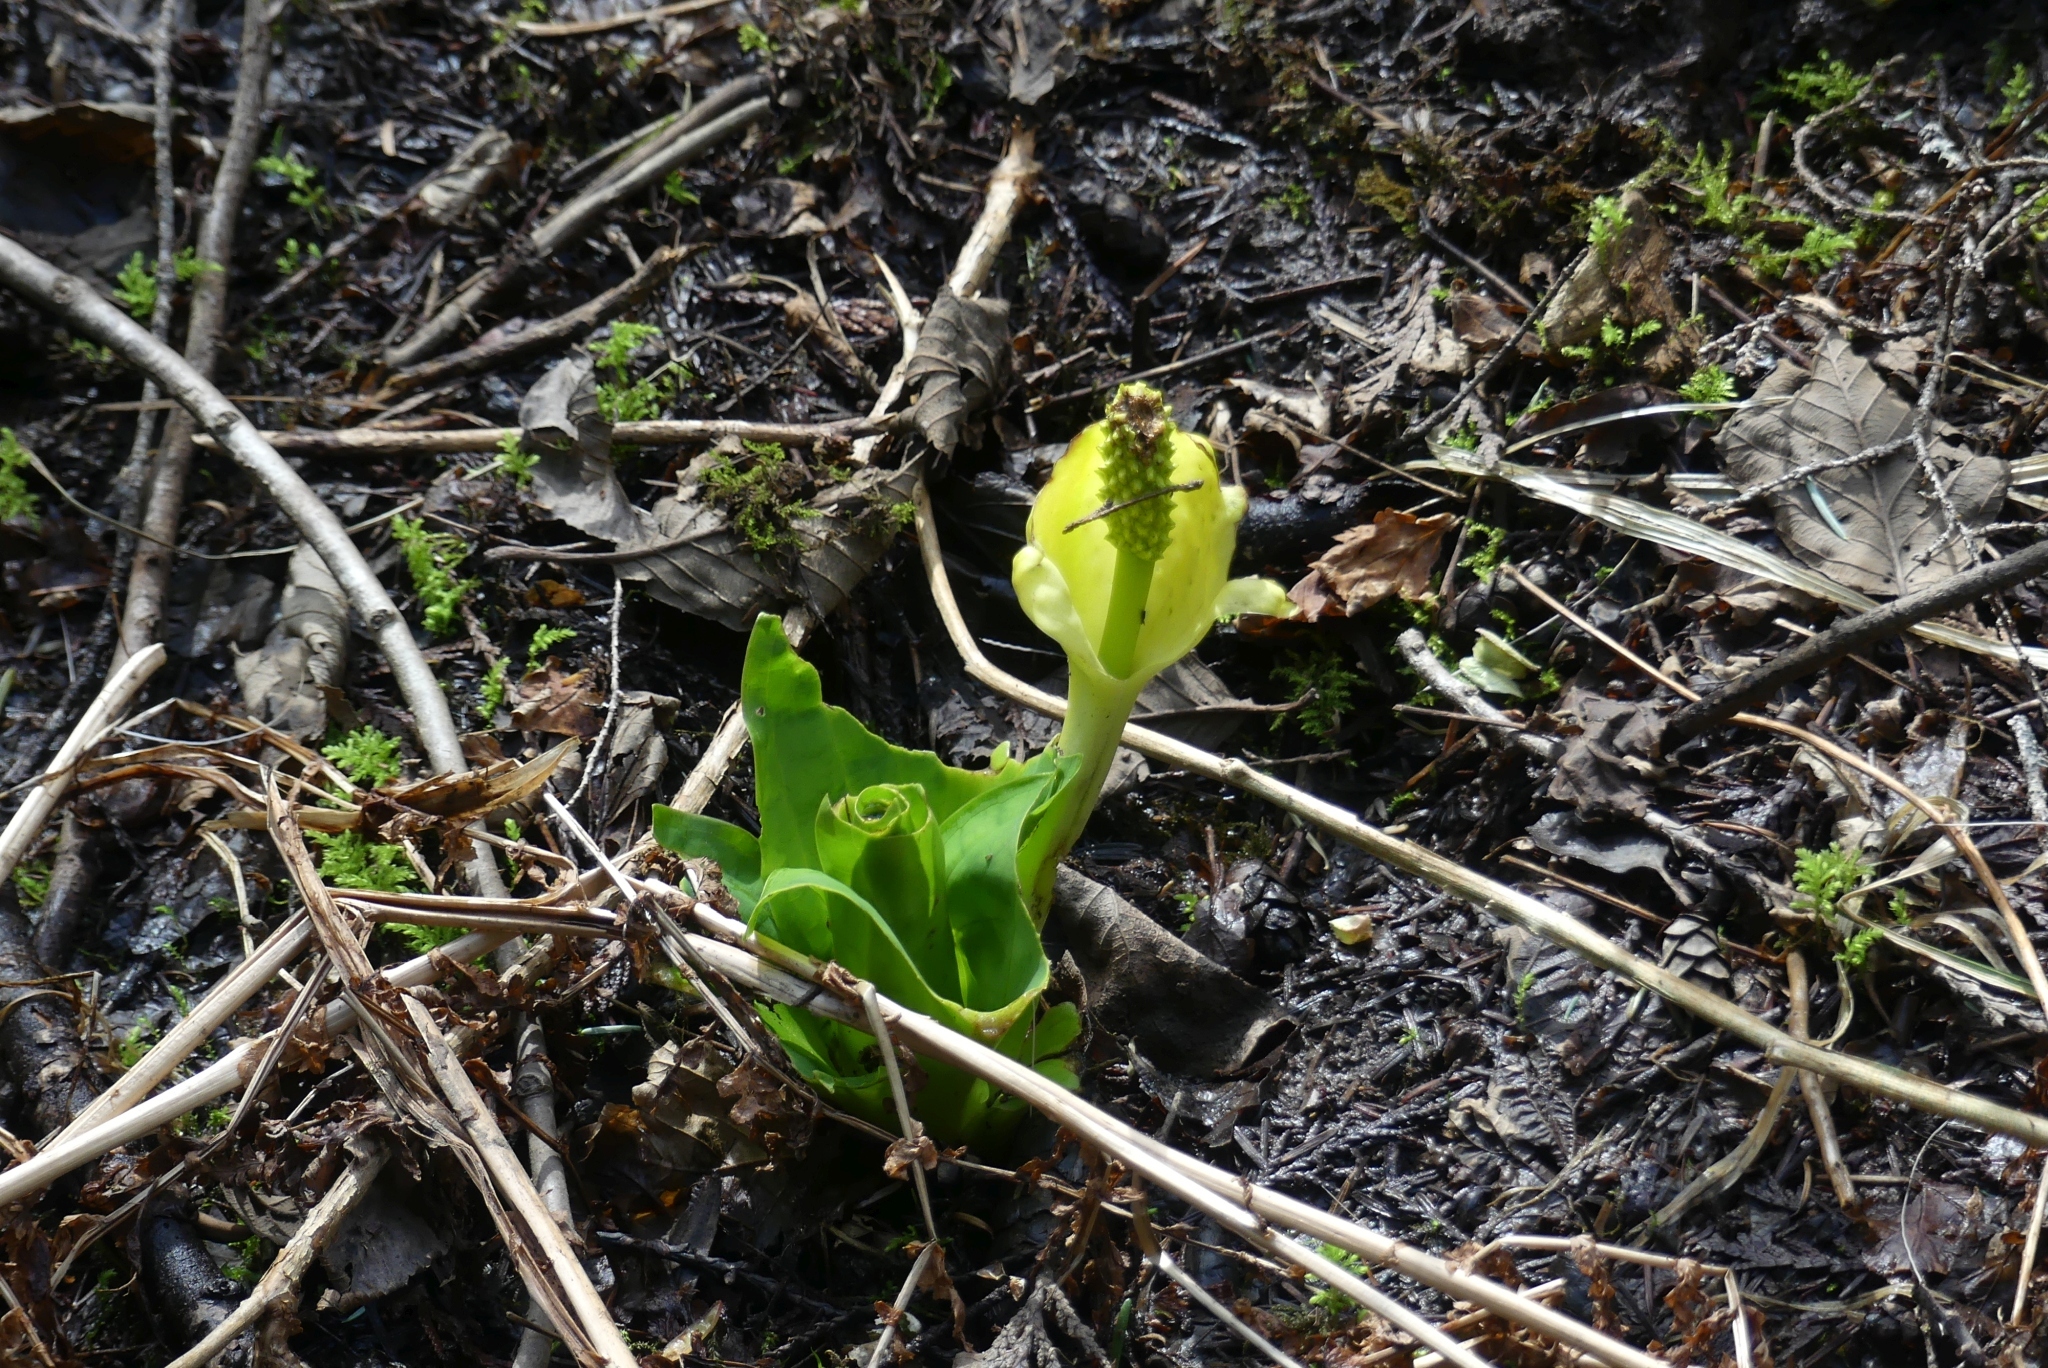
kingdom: Plantae
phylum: Tracheophyta
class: Liliopsida
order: Alismatales
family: Araceae
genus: Lysichiton
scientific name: Lysichiton americanus
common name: American skunk cabbage
